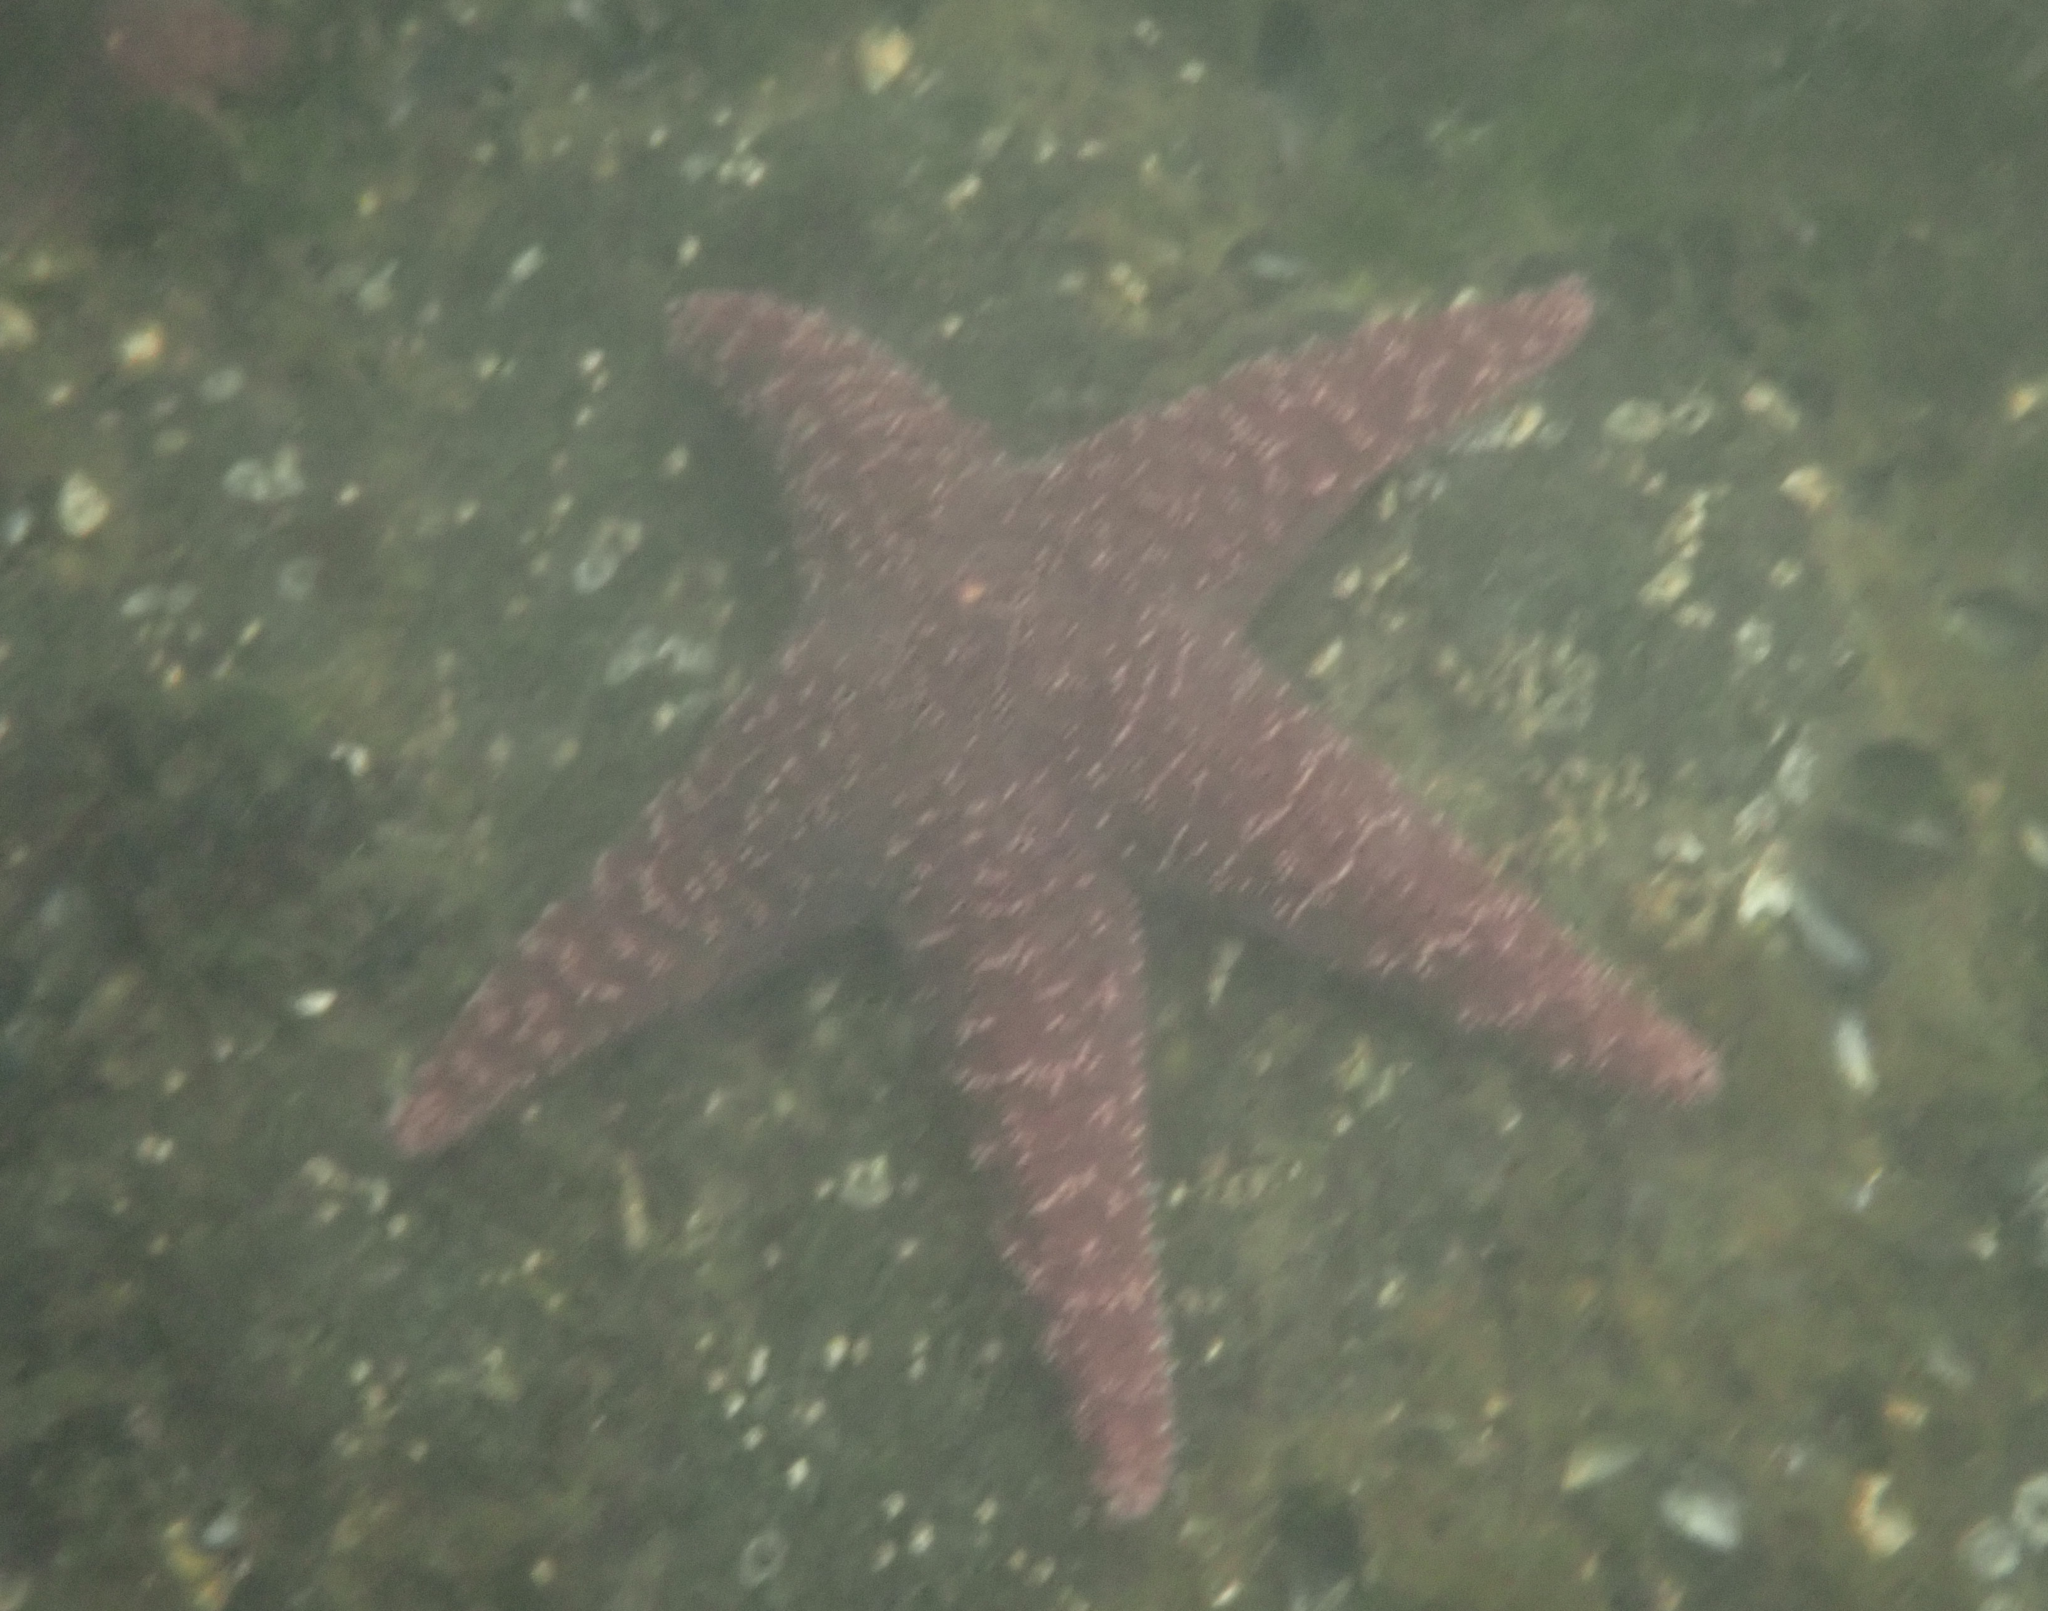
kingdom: Animalia
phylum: Echinodermata
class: Asteroidea
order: Forcipulatida
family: Asteriidae
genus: Pisaster
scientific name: Pisaster ochraceus
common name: Ochre stars
